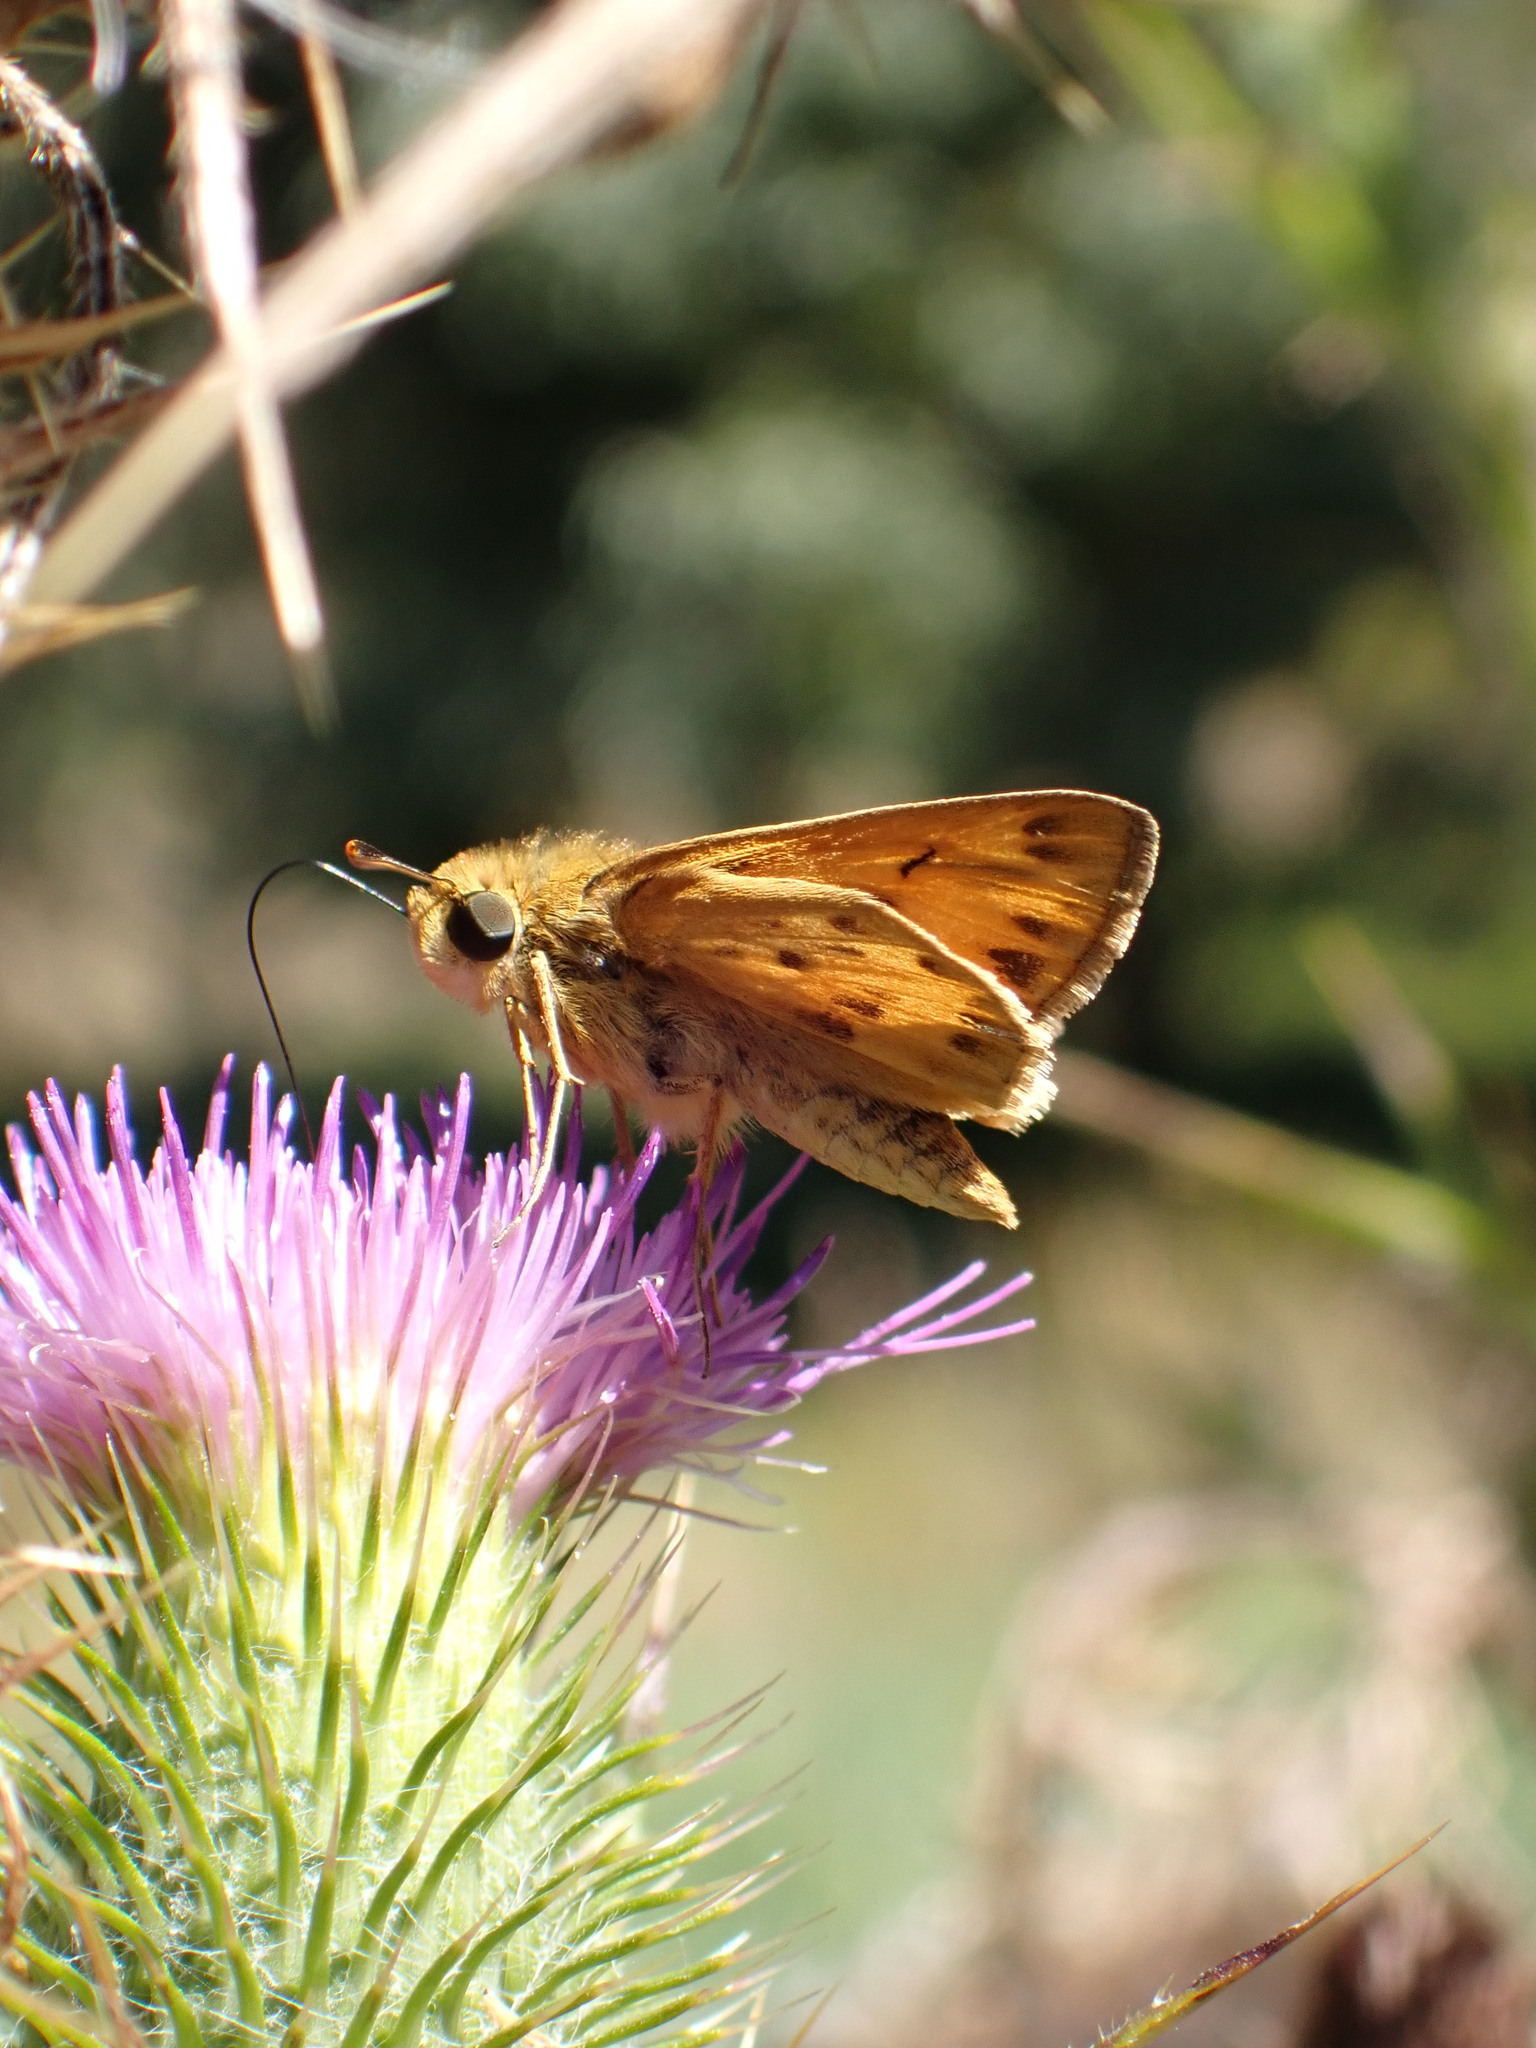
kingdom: Animalia
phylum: Arthropoda
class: Insecta
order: Lepidoptera
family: Hesperiidae
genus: Hylephila
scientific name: Hylephila phyleus
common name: Fiery skipper
